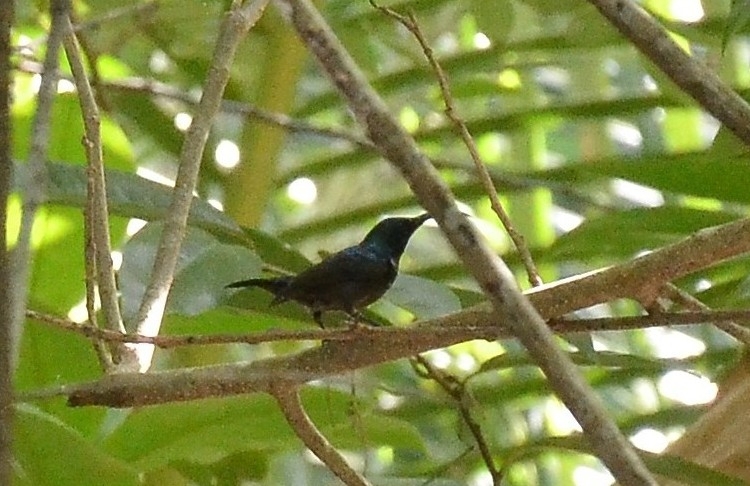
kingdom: Animalia
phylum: Chordata
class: Aves
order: Passeriformes
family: Nectariniidae
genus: Cinnyris
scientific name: Cinnyris lotenius
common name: Loten's sunbird
